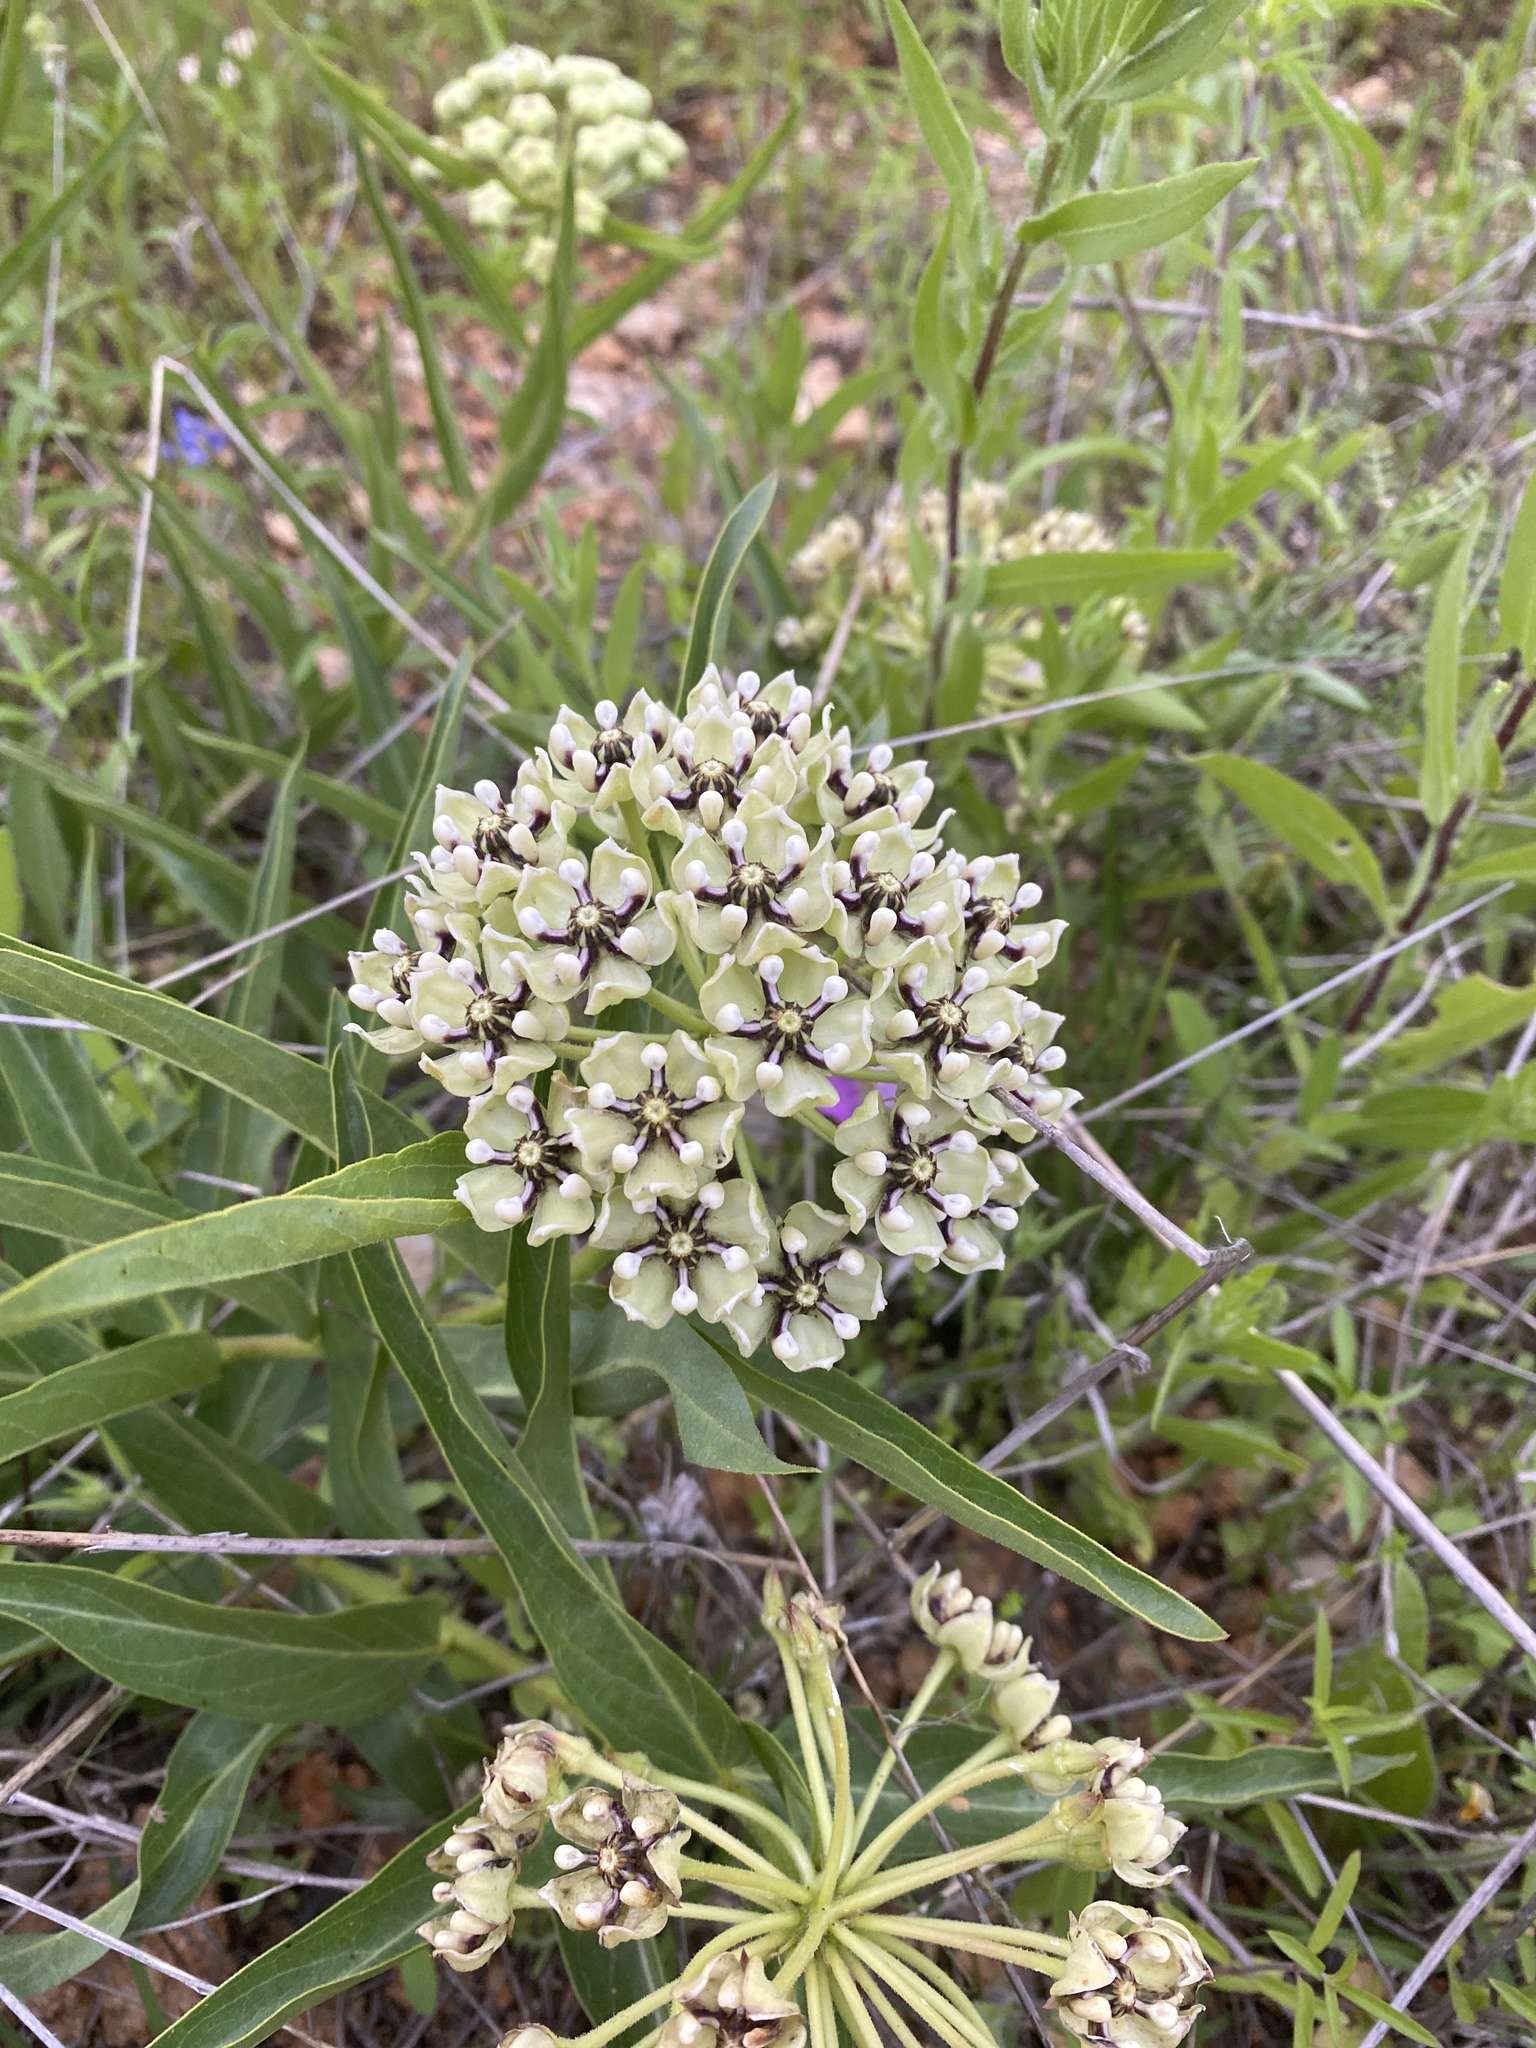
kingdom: Plantae
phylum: Tracheophyta
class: Magnoliopsida
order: Gentianales
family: Apocynaceae
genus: Asclepias
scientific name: Asclepias asperula
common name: Antelope horns
